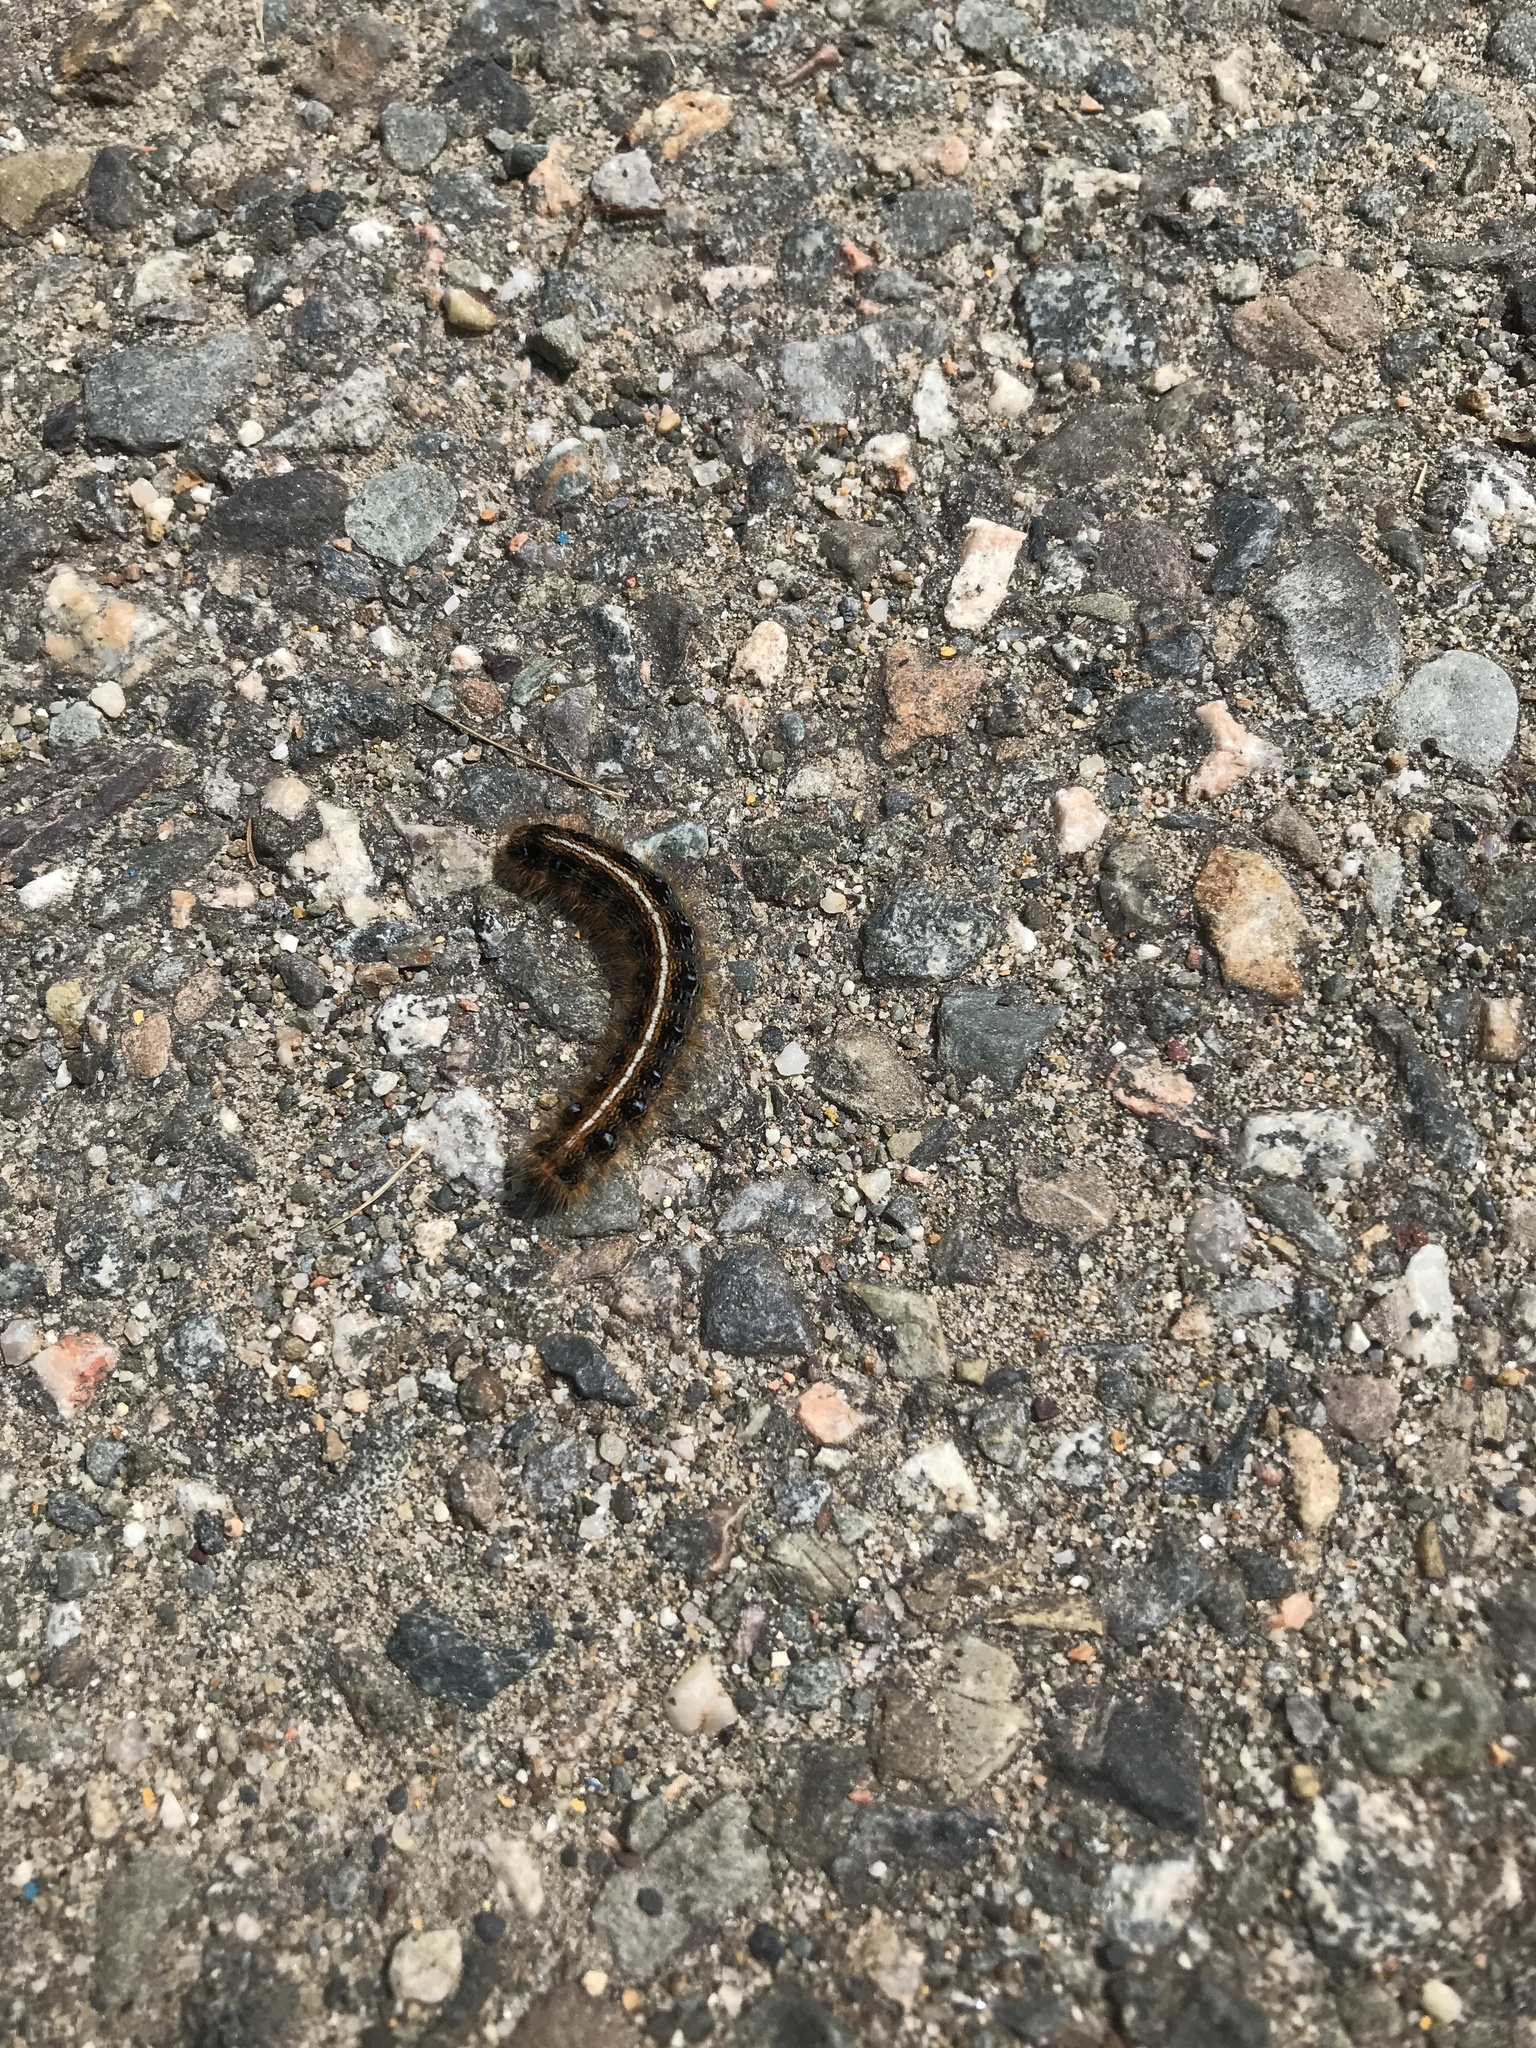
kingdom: Animalia
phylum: Arthropoda
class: Insecta
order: Lepidoptera
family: Lasiocampidae
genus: Malacosoma
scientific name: Malacosoma americana
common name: Eastern tent caterpillar moth
